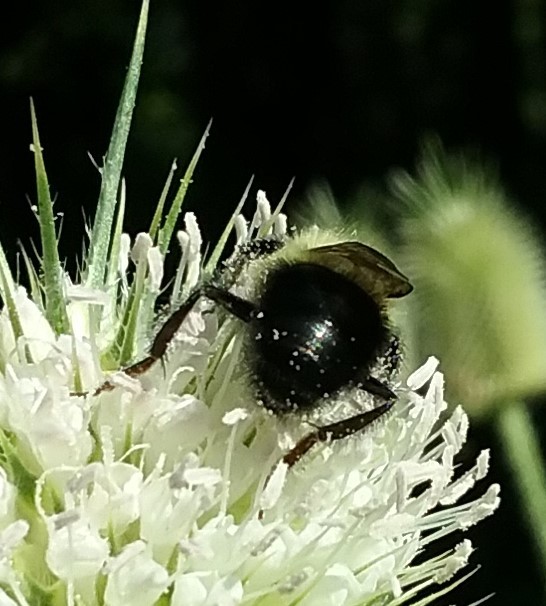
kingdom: Animalia
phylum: Arthropoda
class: Insecta
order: Hymenoptera
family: Apidae
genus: Bombus
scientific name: Bombus impatiens
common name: Common eastern bumble bee
